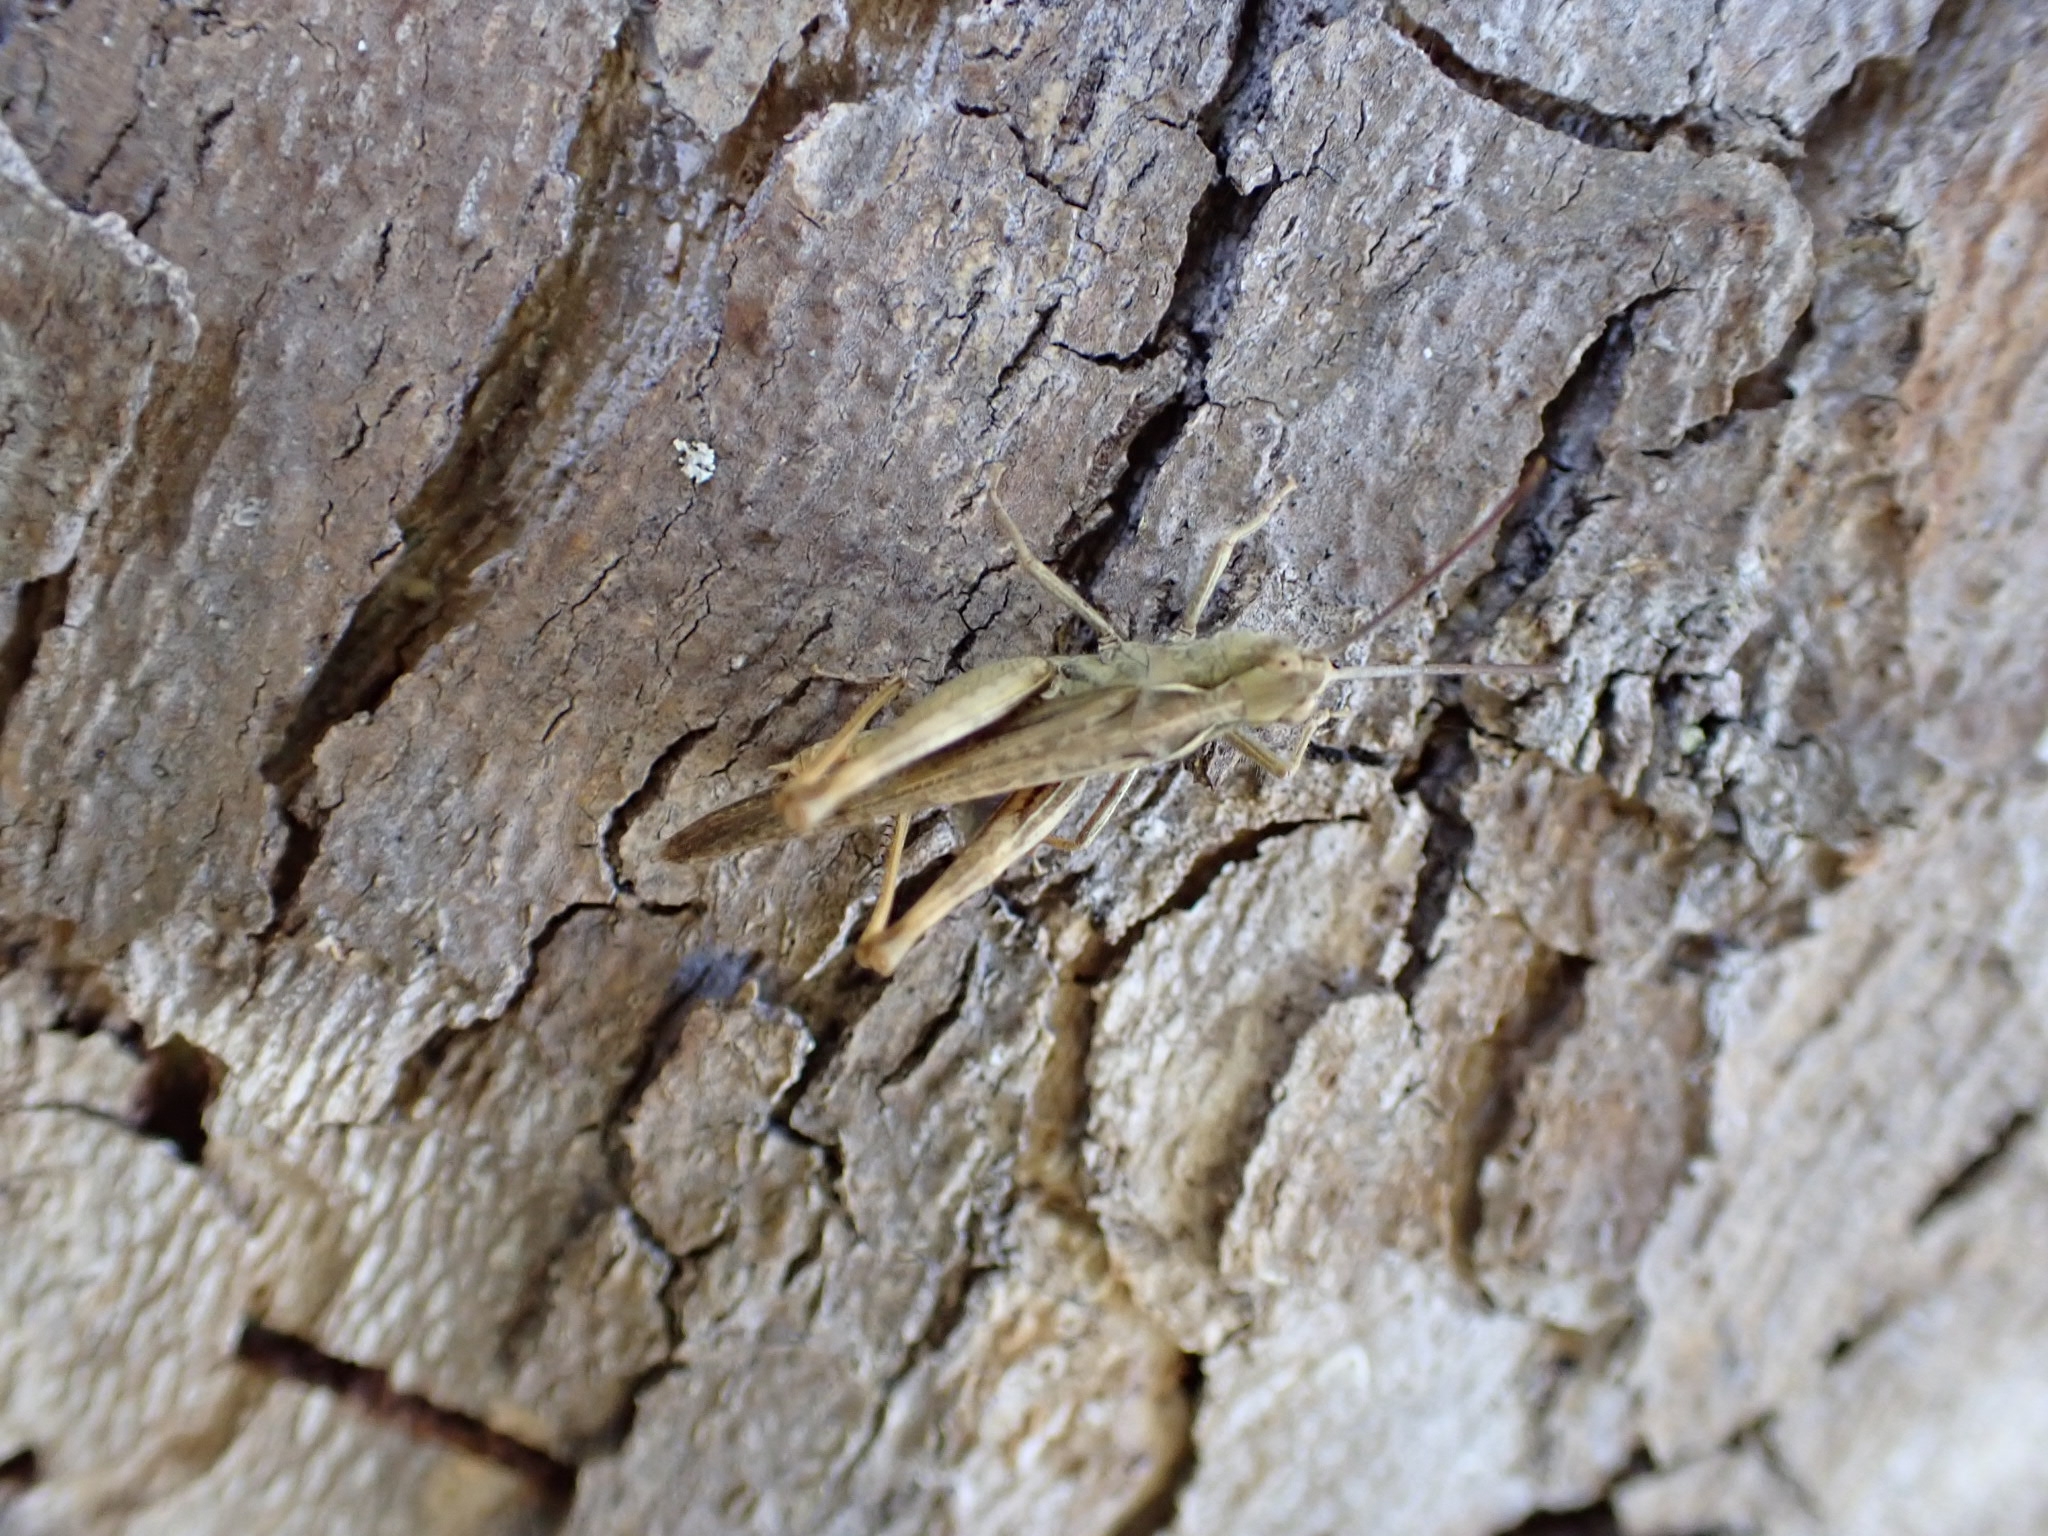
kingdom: Animalia
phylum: Arthropoda
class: Insecta
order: Orthoptera
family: Acrididae
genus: Chorthippus
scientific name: Chorthippus brunneus
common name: Field grasshopper
